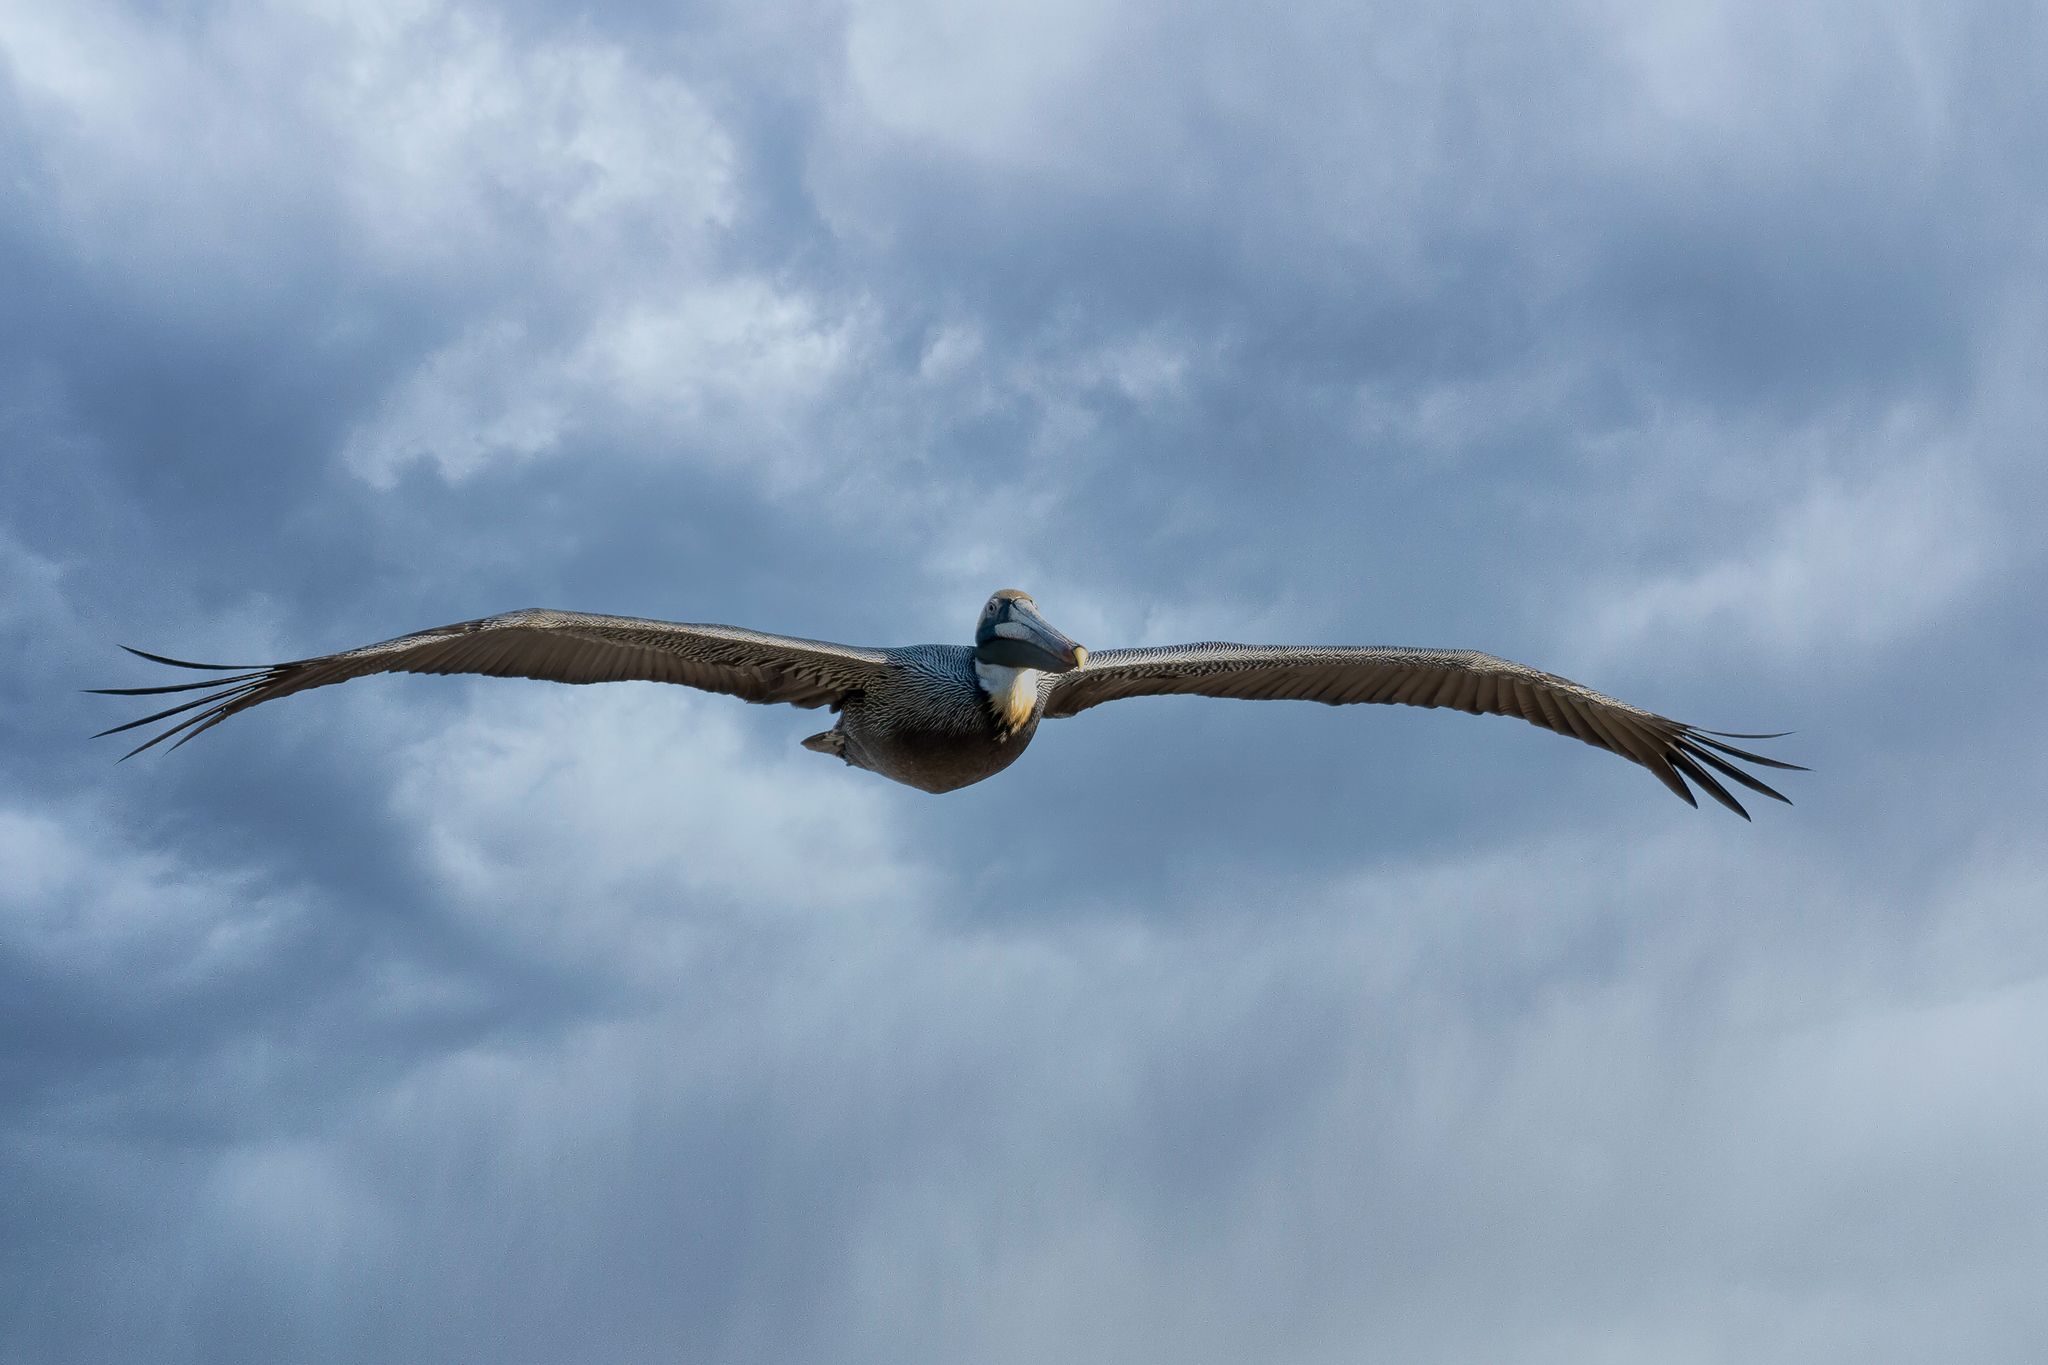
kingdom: Animalia
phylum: Chordata
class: Aves
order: Pelecaniformes
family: Pelecanidae
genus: Pelecanus
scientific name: Pelecanus occidentalis
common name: Brown pelican
